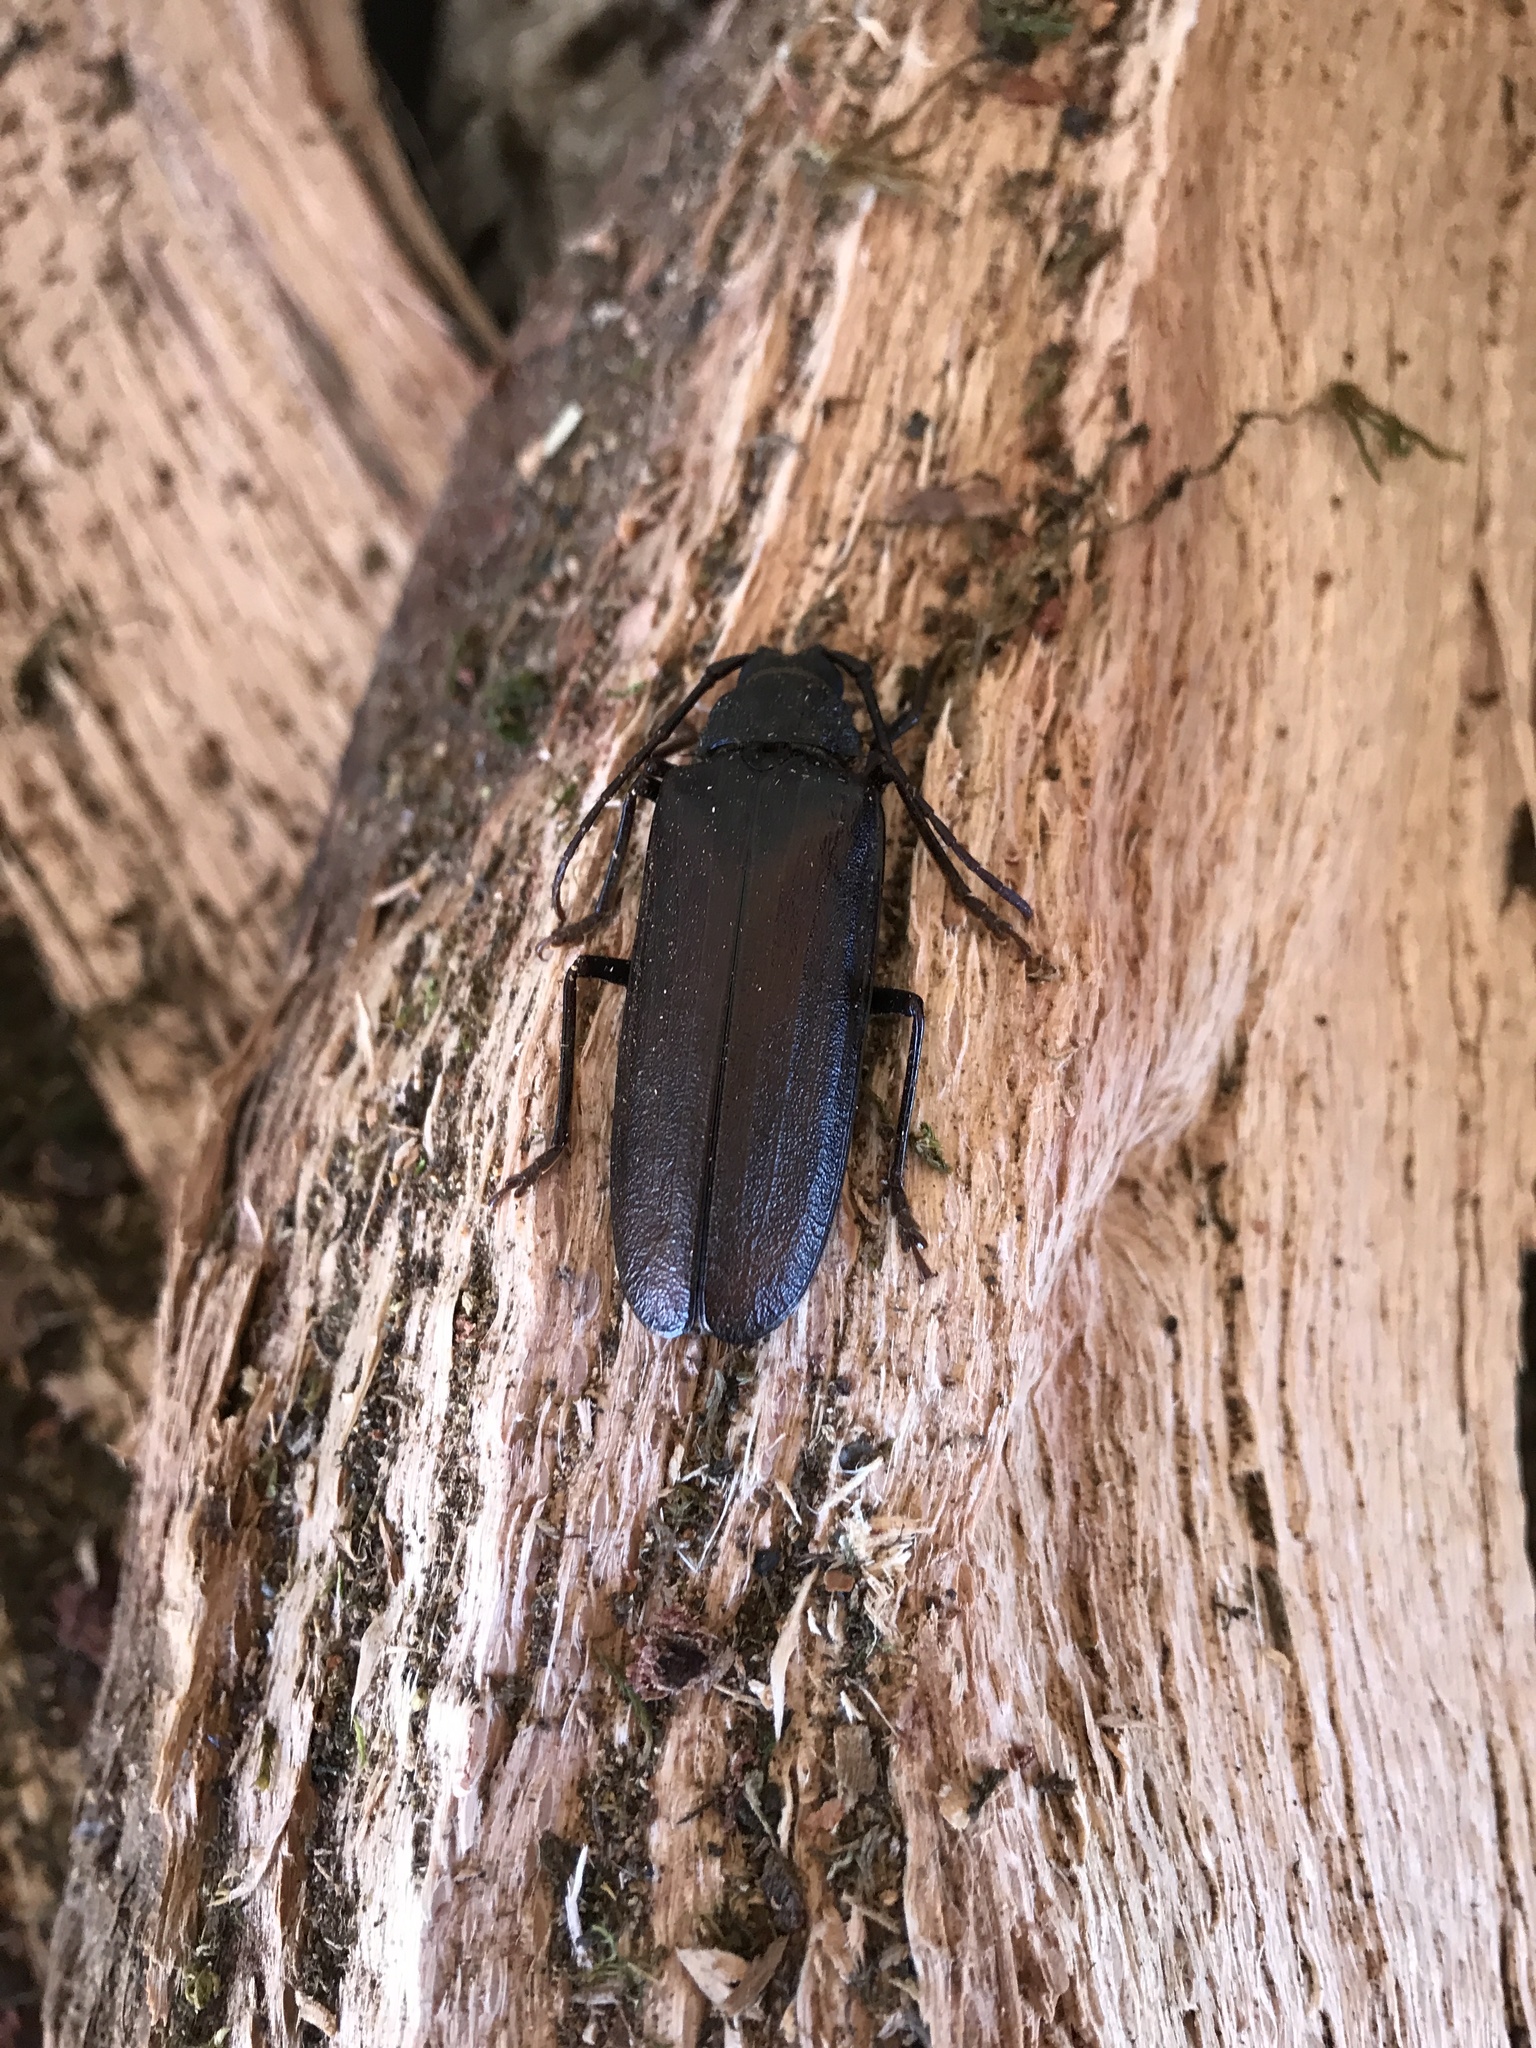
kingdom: Animalia
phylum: Arthropoda
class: Insecta
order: Coleoptera
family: Cerambycidae
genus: Trichocnemis
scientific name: Trichocnemis spiculatus
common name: Long-horned beetle
